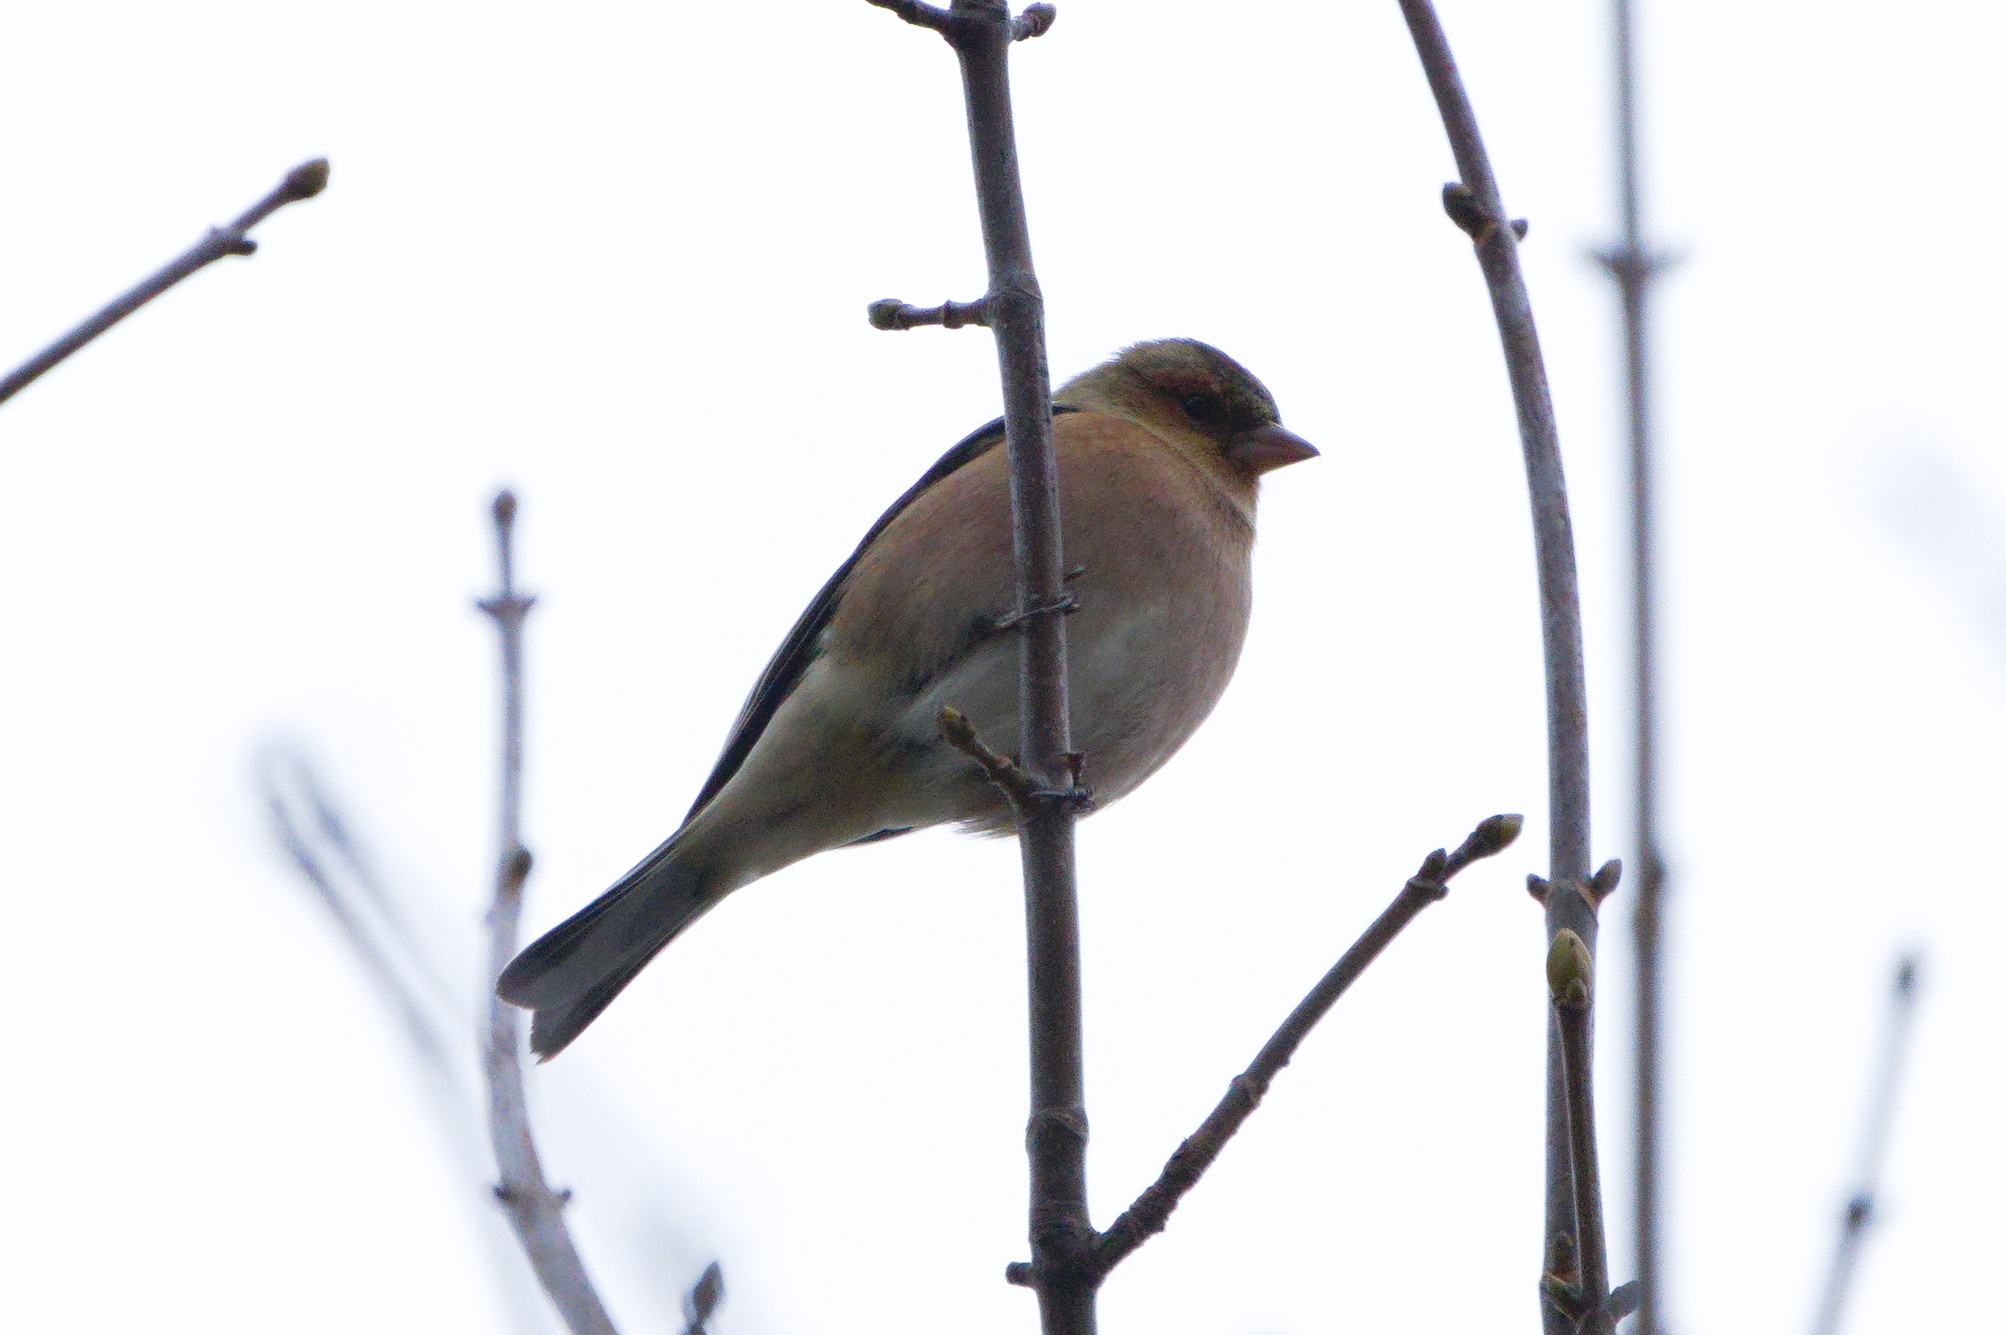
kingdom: Animalia
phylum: Chordata
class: Aves
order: Passeriformes
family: Fringillidae
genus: Fringilla
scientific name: Fringilla coelebs
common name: Common chaffinch
